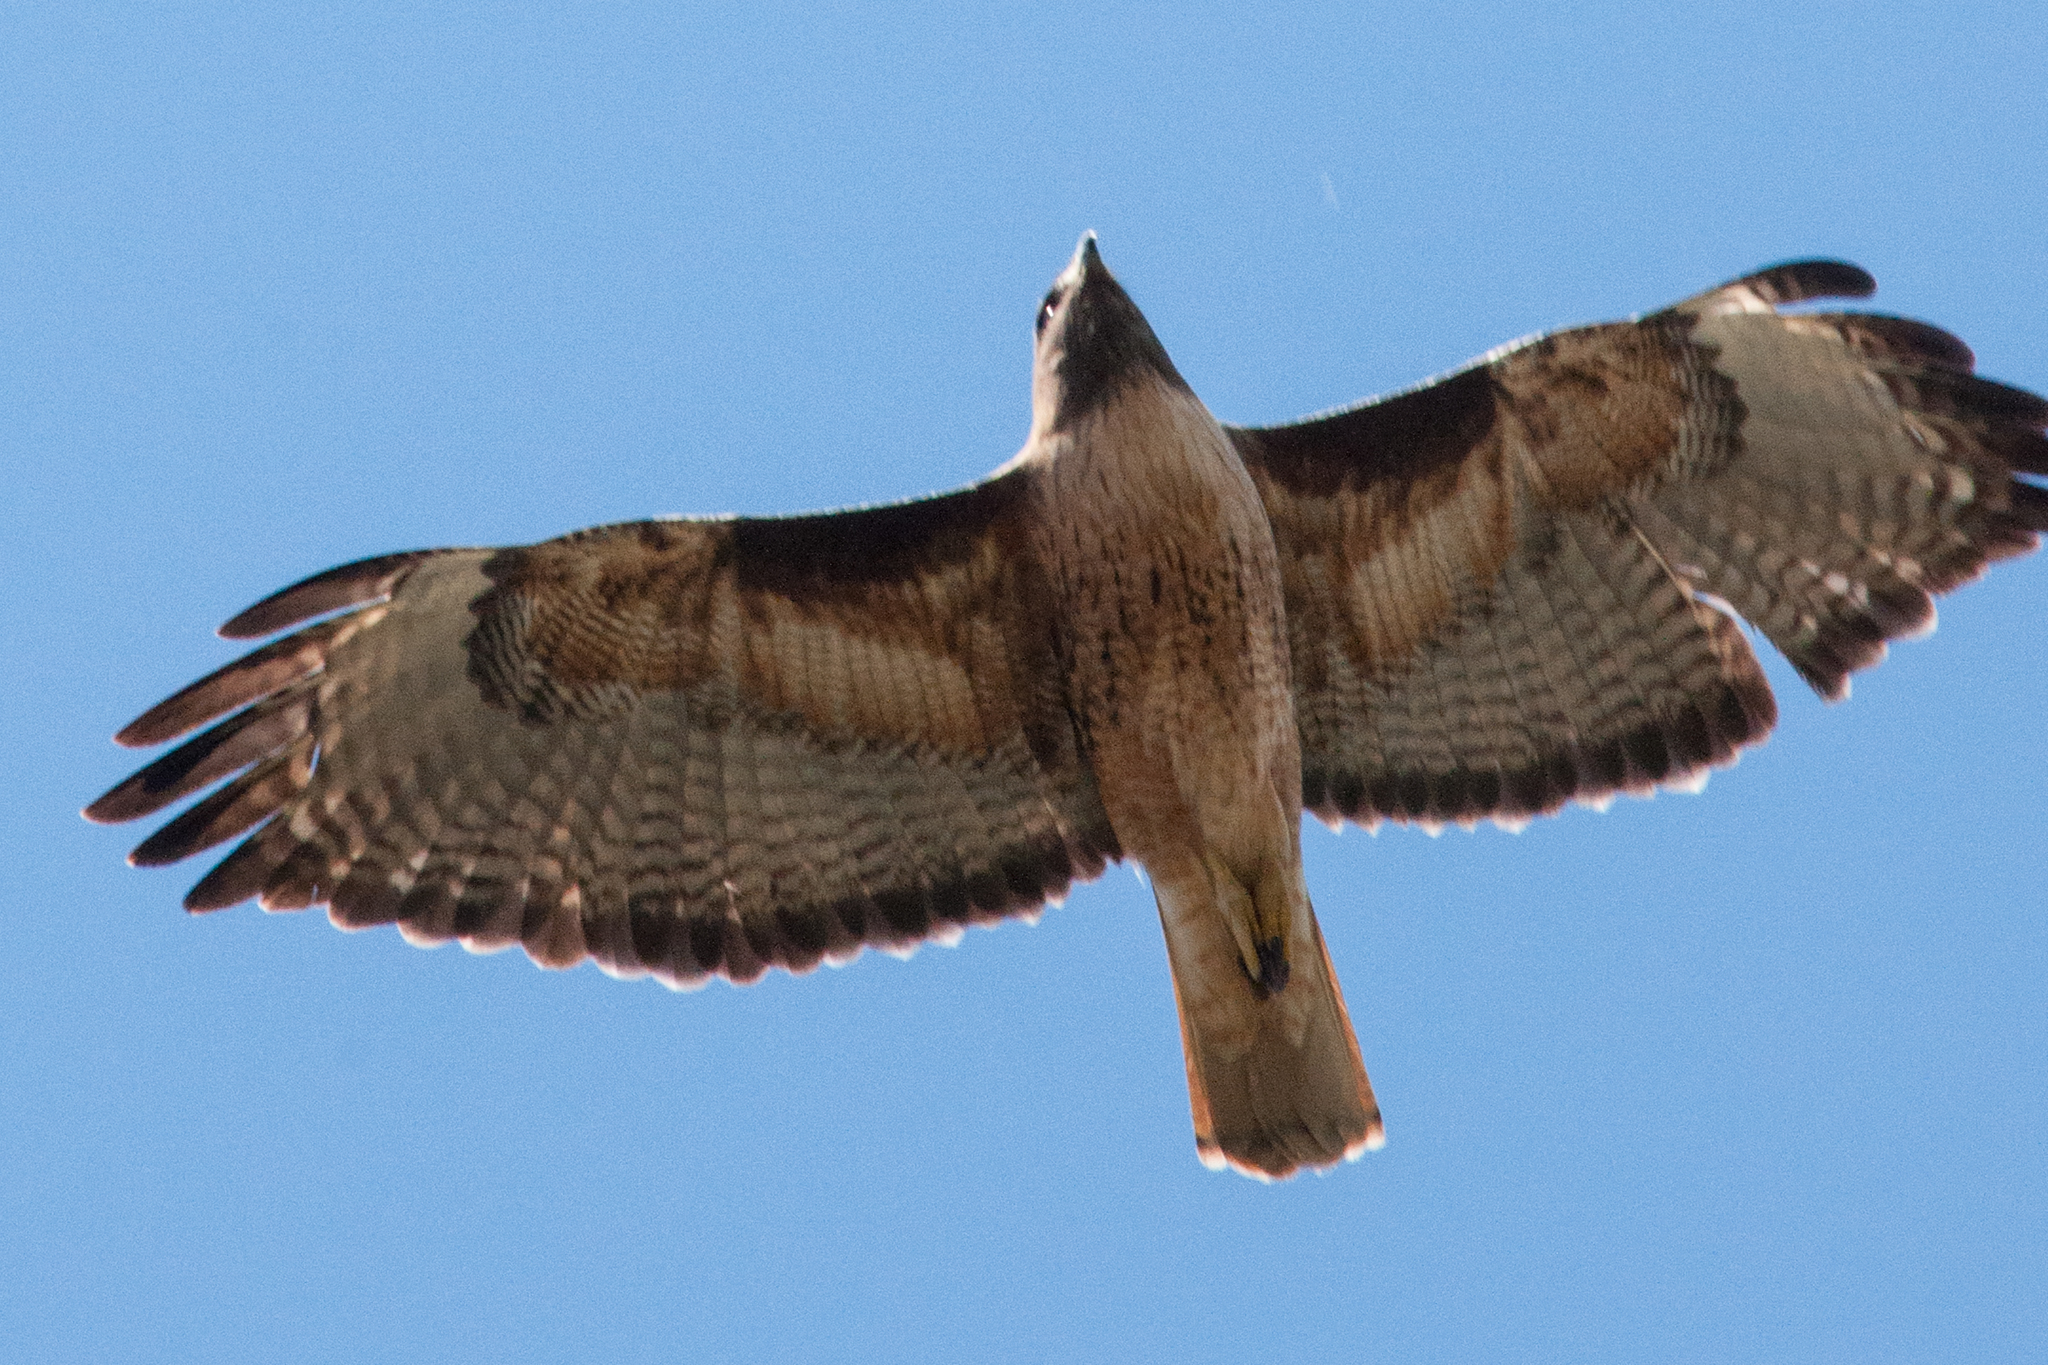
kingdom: Animalia
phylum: Chordata
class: Aves
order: Accipitriformes
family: Accipitridae
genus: Buteo
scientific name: Buteo jamaicensis
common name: Red-tailed hawk
